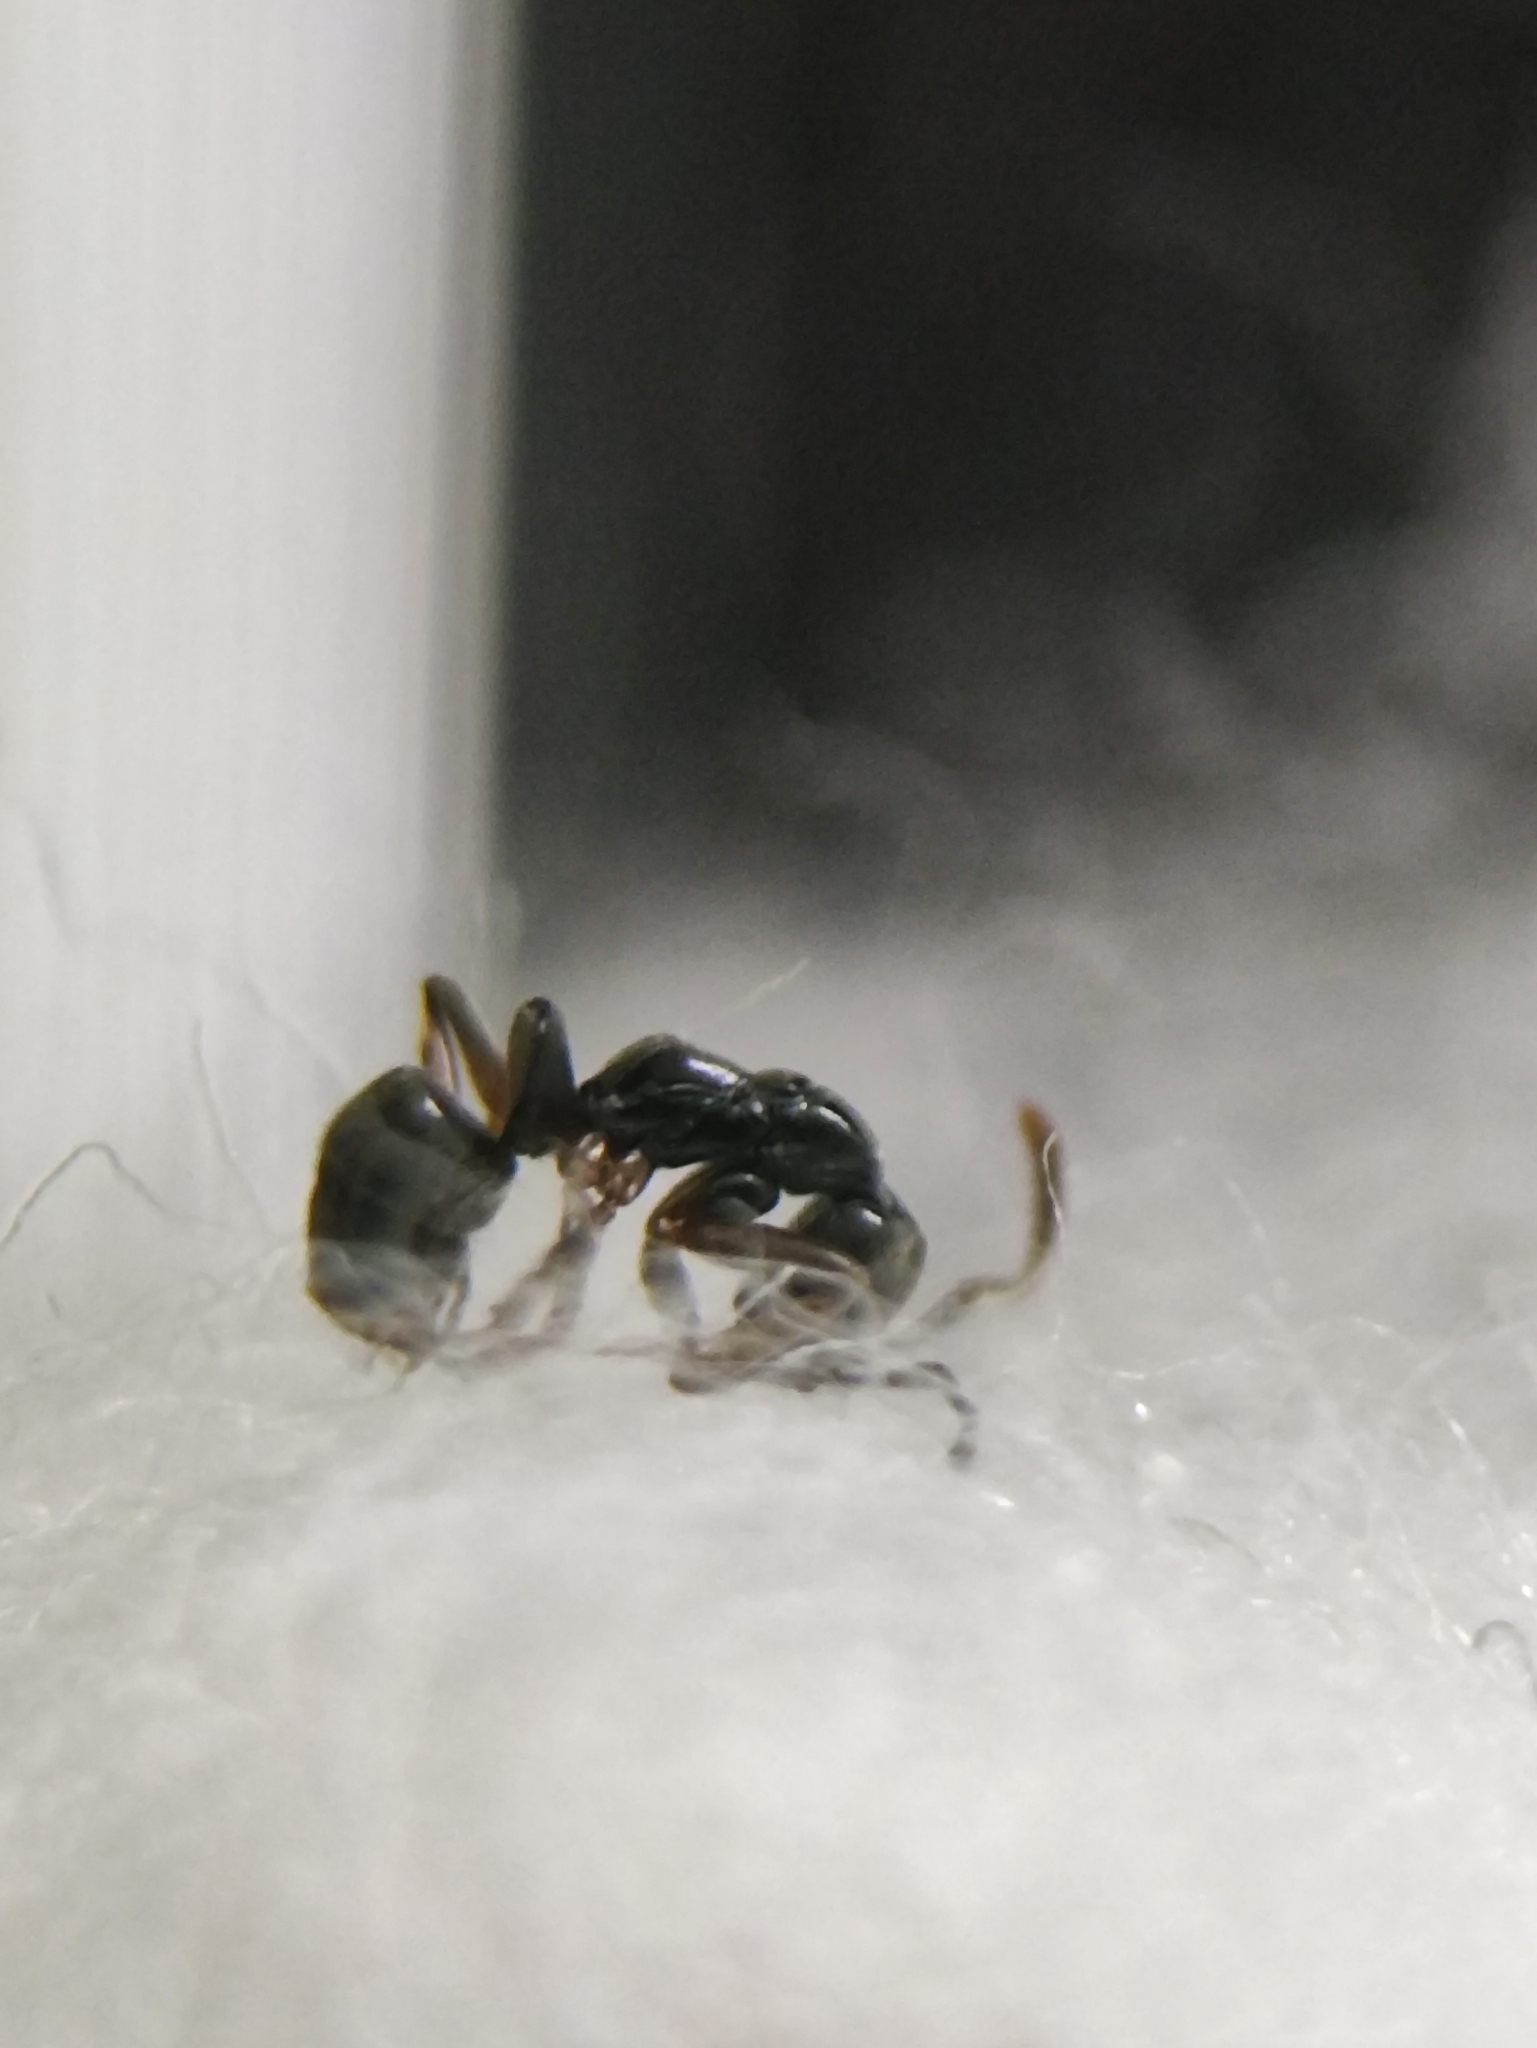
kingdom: Animalia
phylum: Arthropoda
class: Insecta
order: Hymenoptera
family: Formicidae
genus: Brachyponera
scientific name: Brachyponera obscurans
